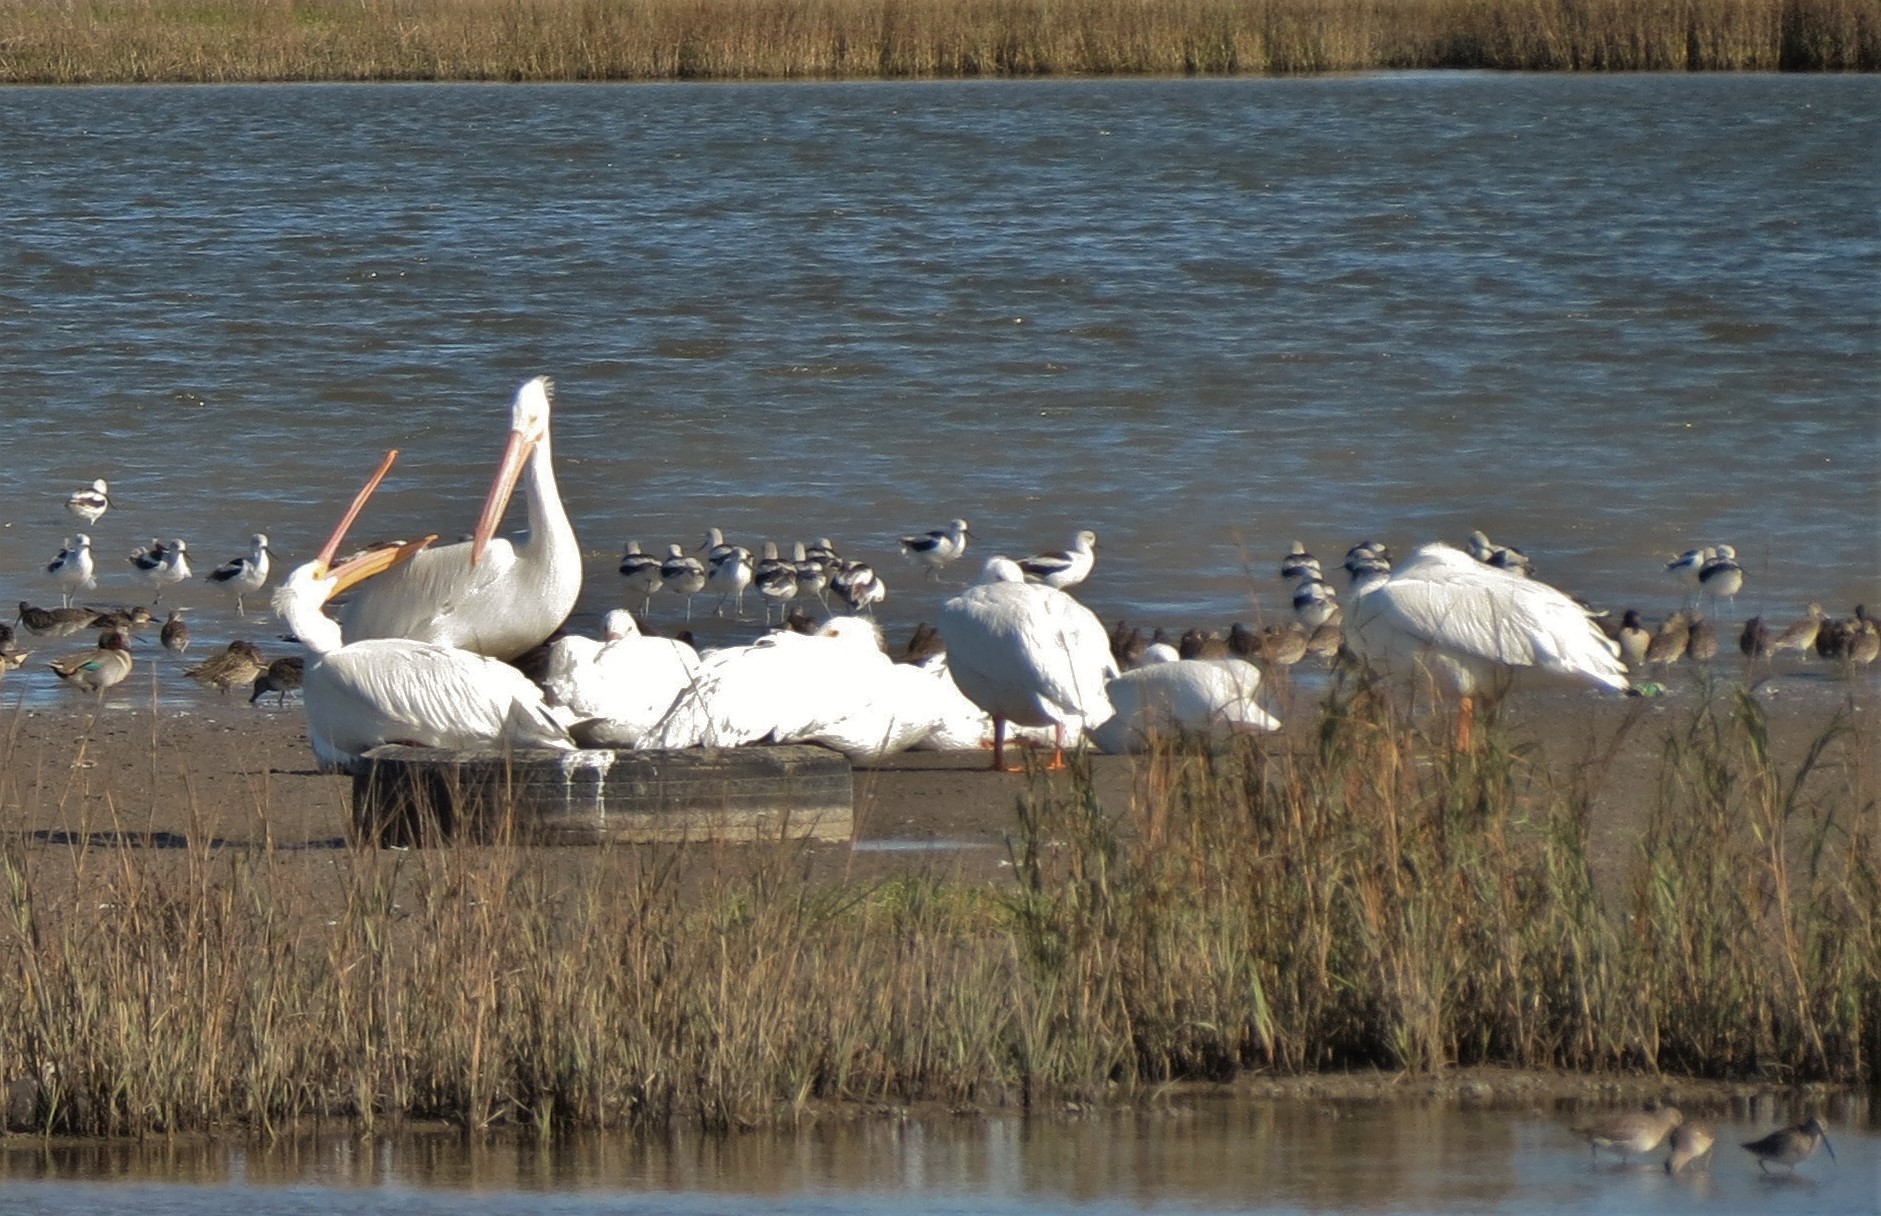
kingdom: Animalia
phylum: Chordata
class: Aves
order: Pelecaniformes
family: Pelecanidae
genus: Pelecanus
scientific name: Pelecanus erythrorhynchos
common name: American white pelican
